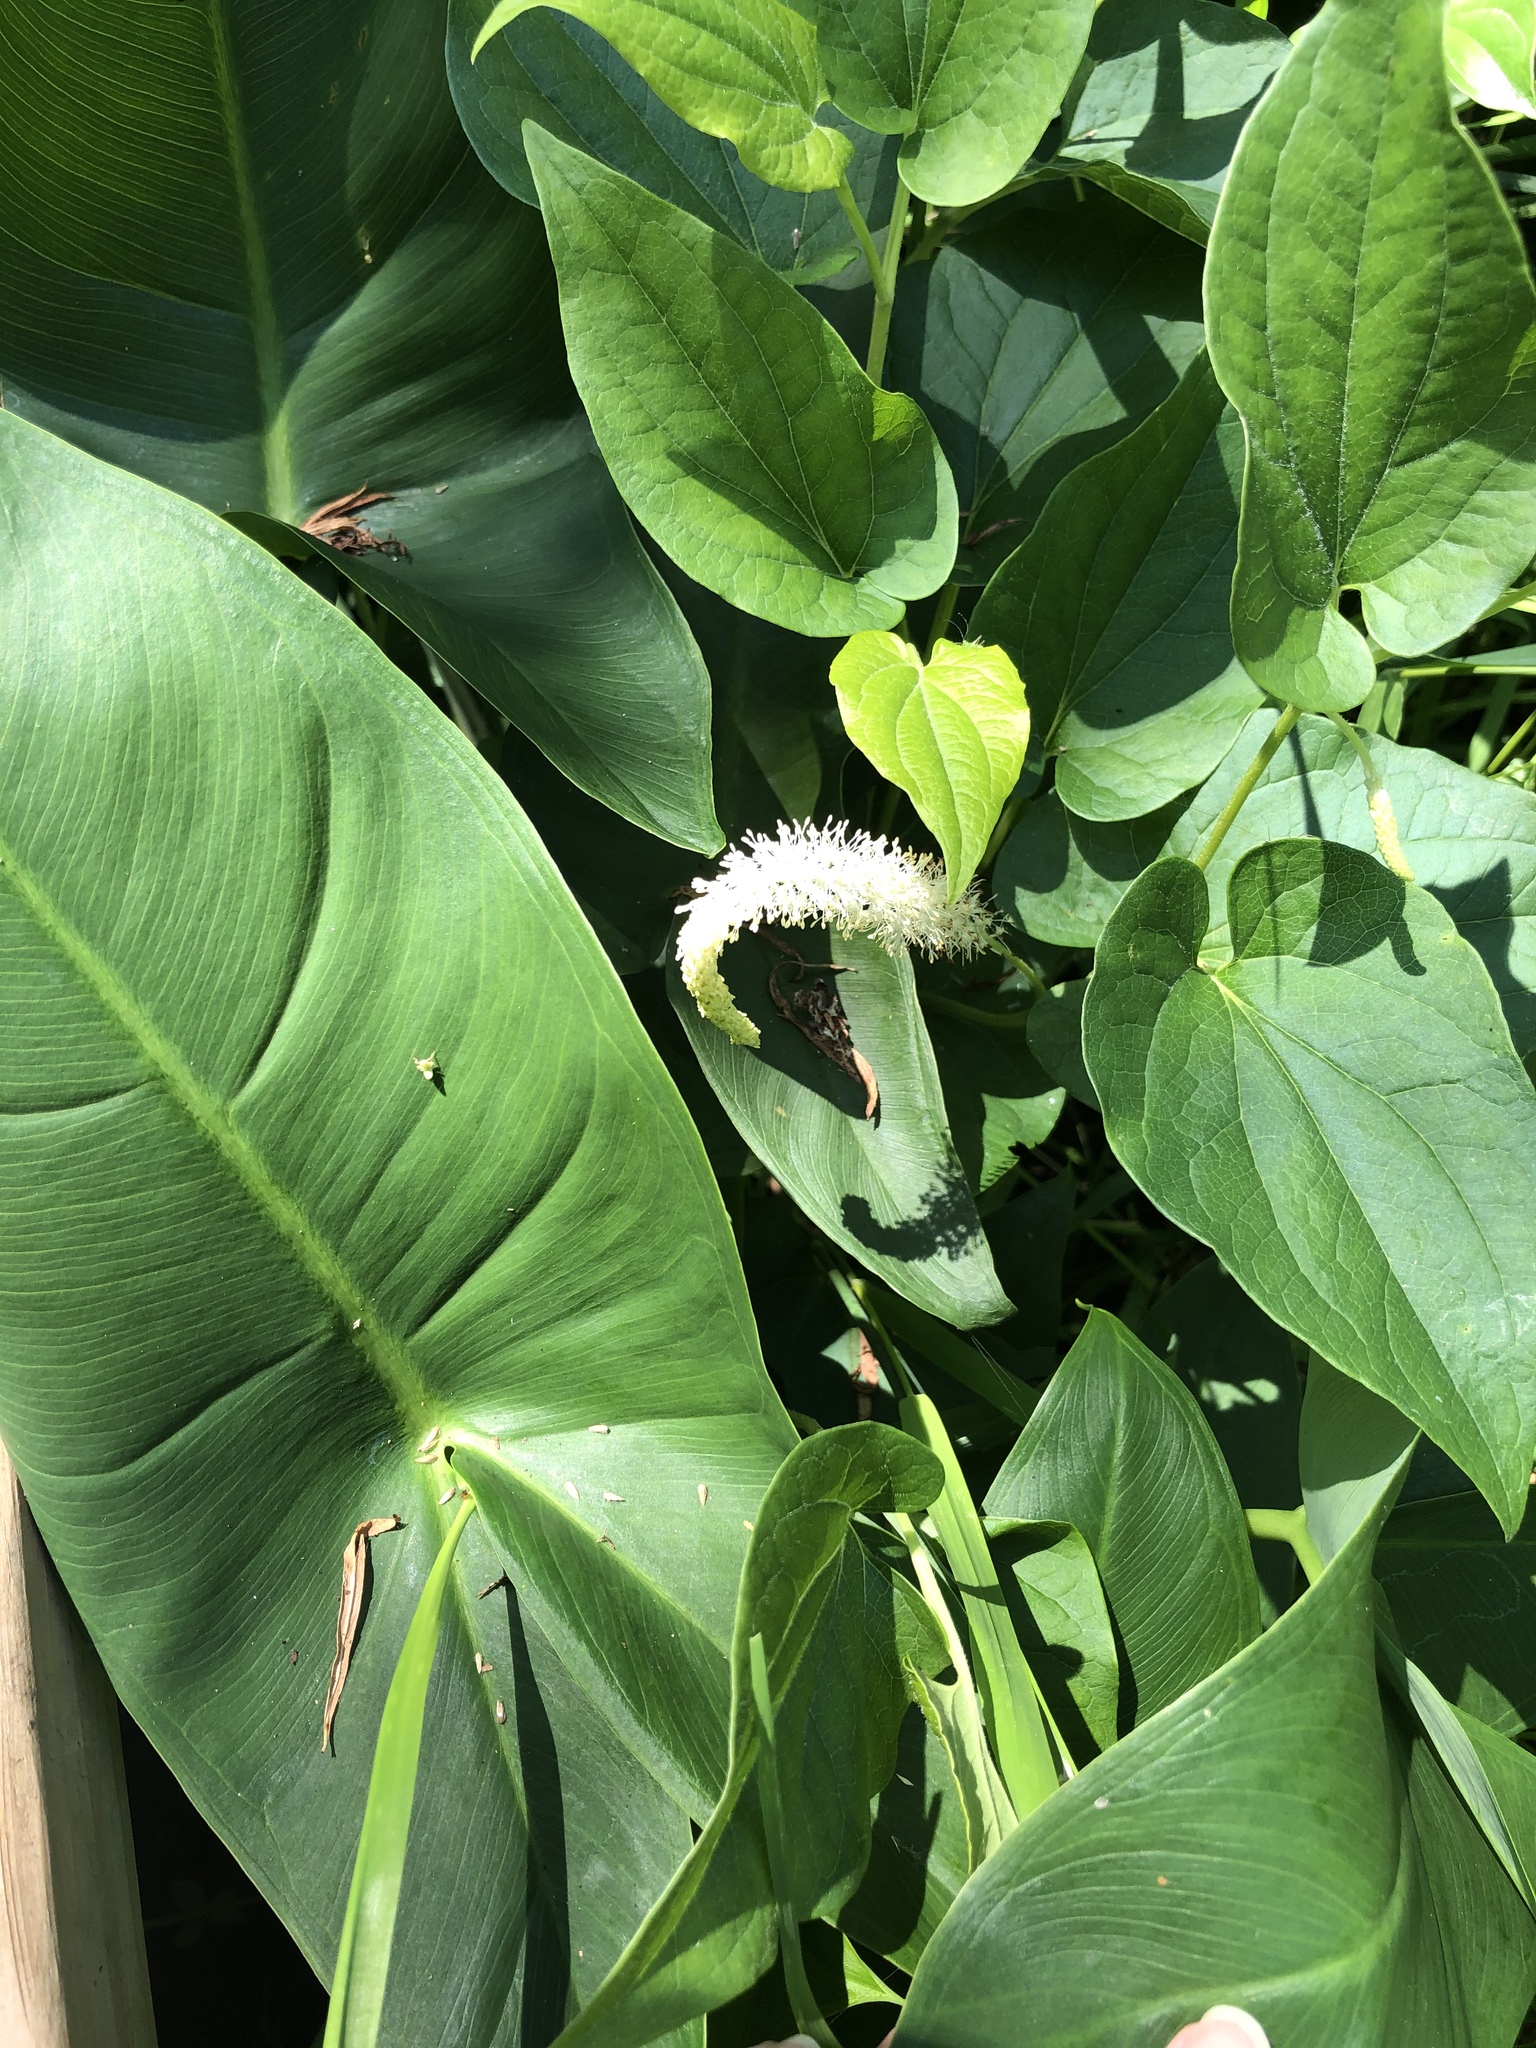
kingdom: Plantae
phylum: Tracheophyta
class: Magnoliopsida
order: Piperales
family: Saururaceae
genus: Saururus
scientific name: Saururus cernuus
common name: Lizard's-tail
